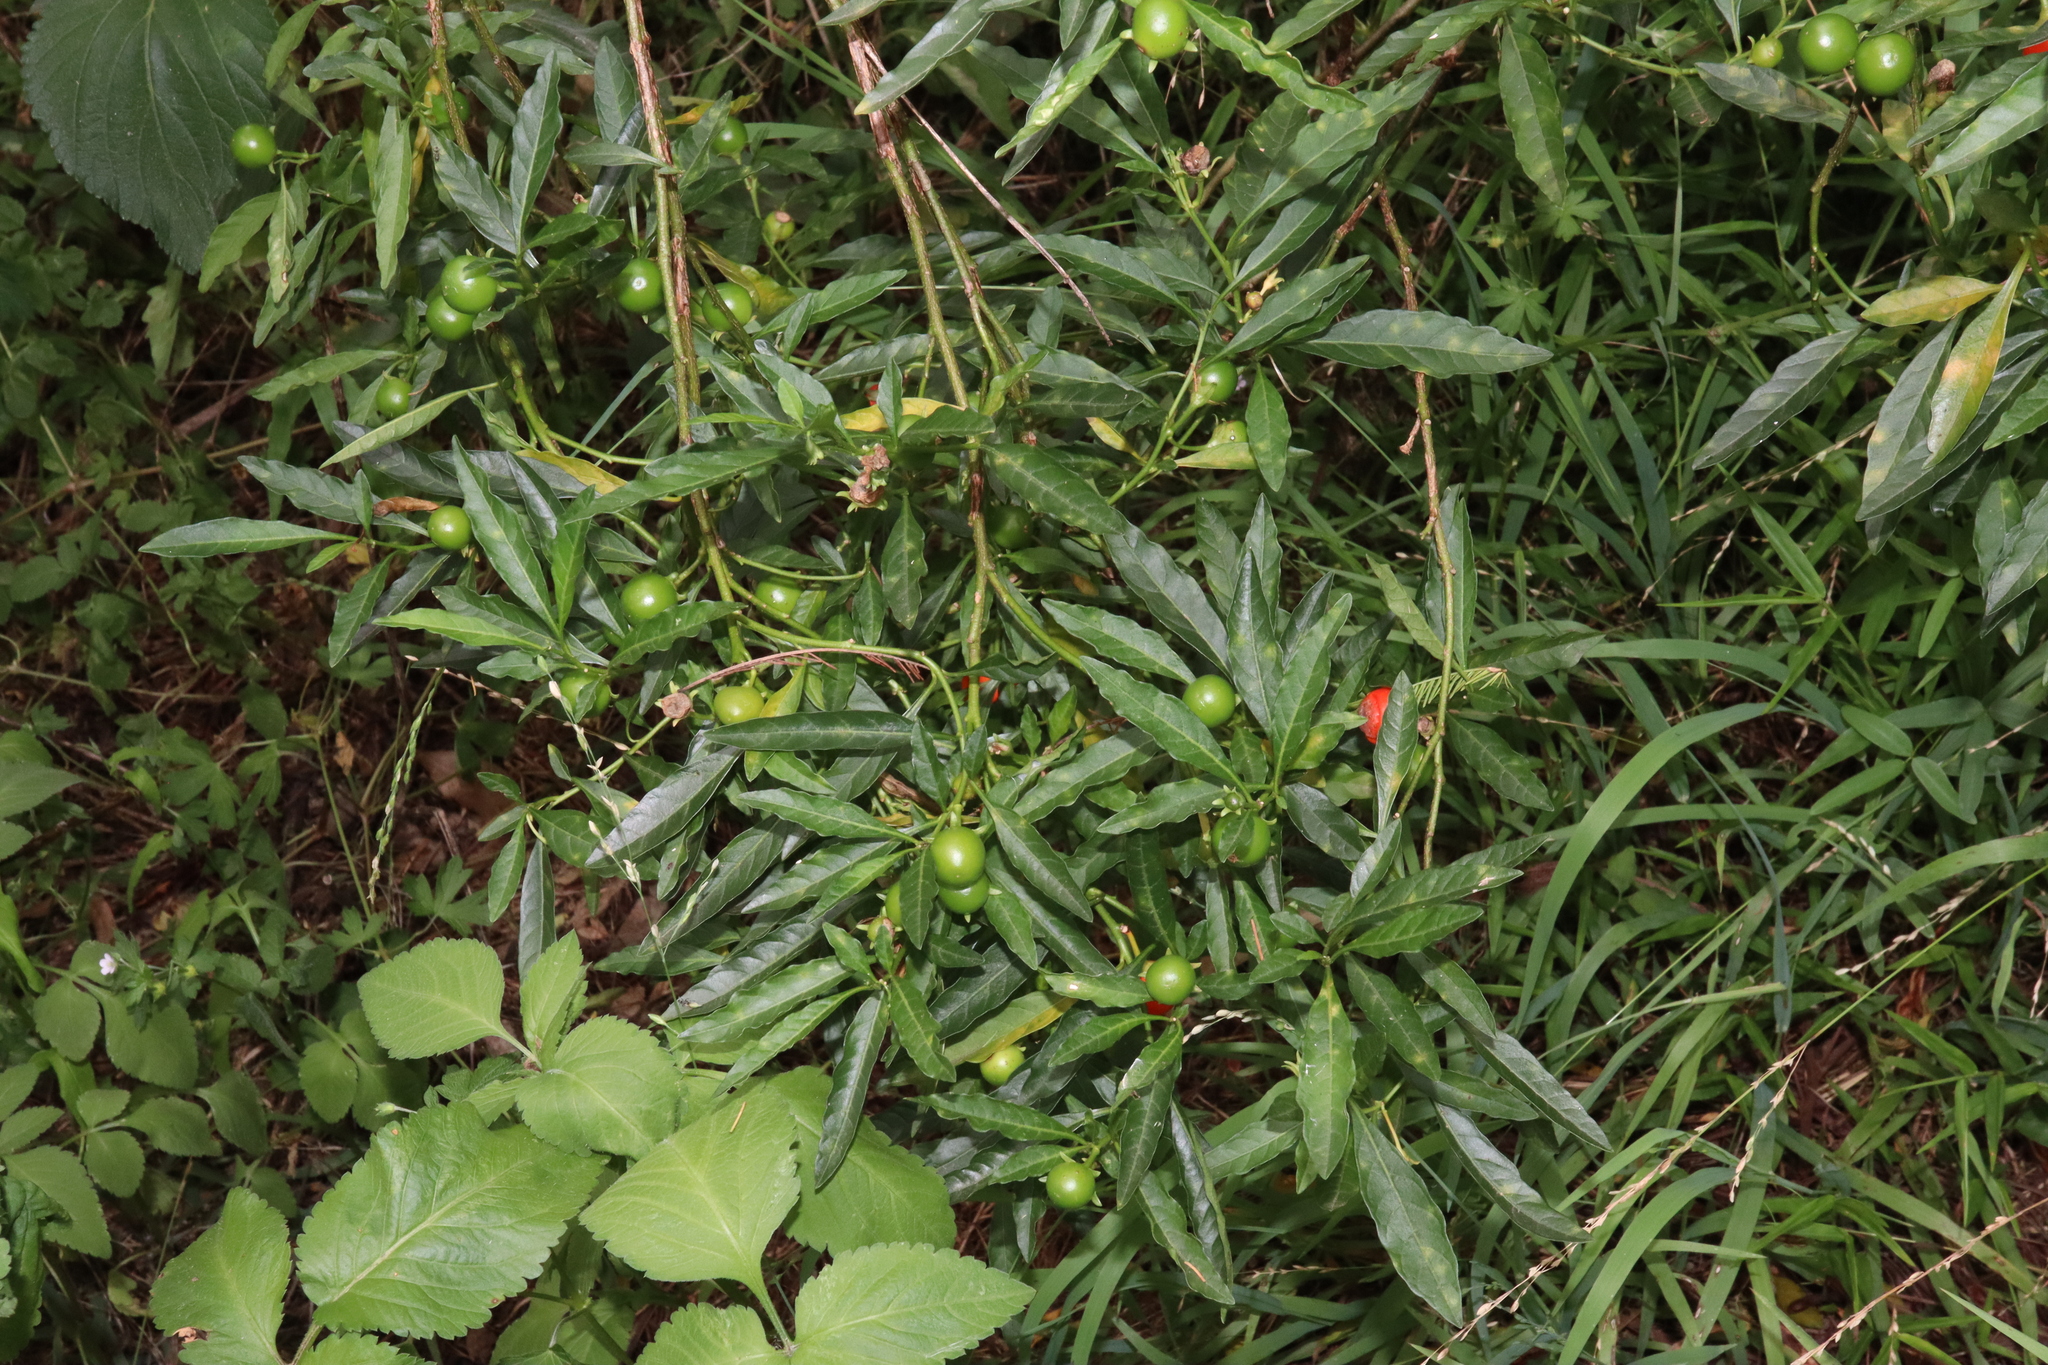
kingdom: Plantae
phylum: Tracheophyta
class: Magnoliopsida
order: Solanales
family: Solanaceae
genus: Solanum
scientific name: Solanum pseudocapsicum
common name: Jerusalem cherry
